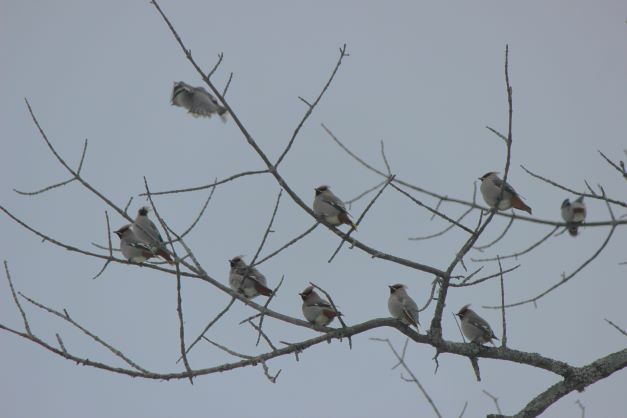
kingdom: Animalia
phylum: Chordata
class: Aves
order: Passeriformes
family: Bombycillidae
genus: Bombycilla
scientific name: Bombycilla garrulus
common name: Bohemian waxwing
